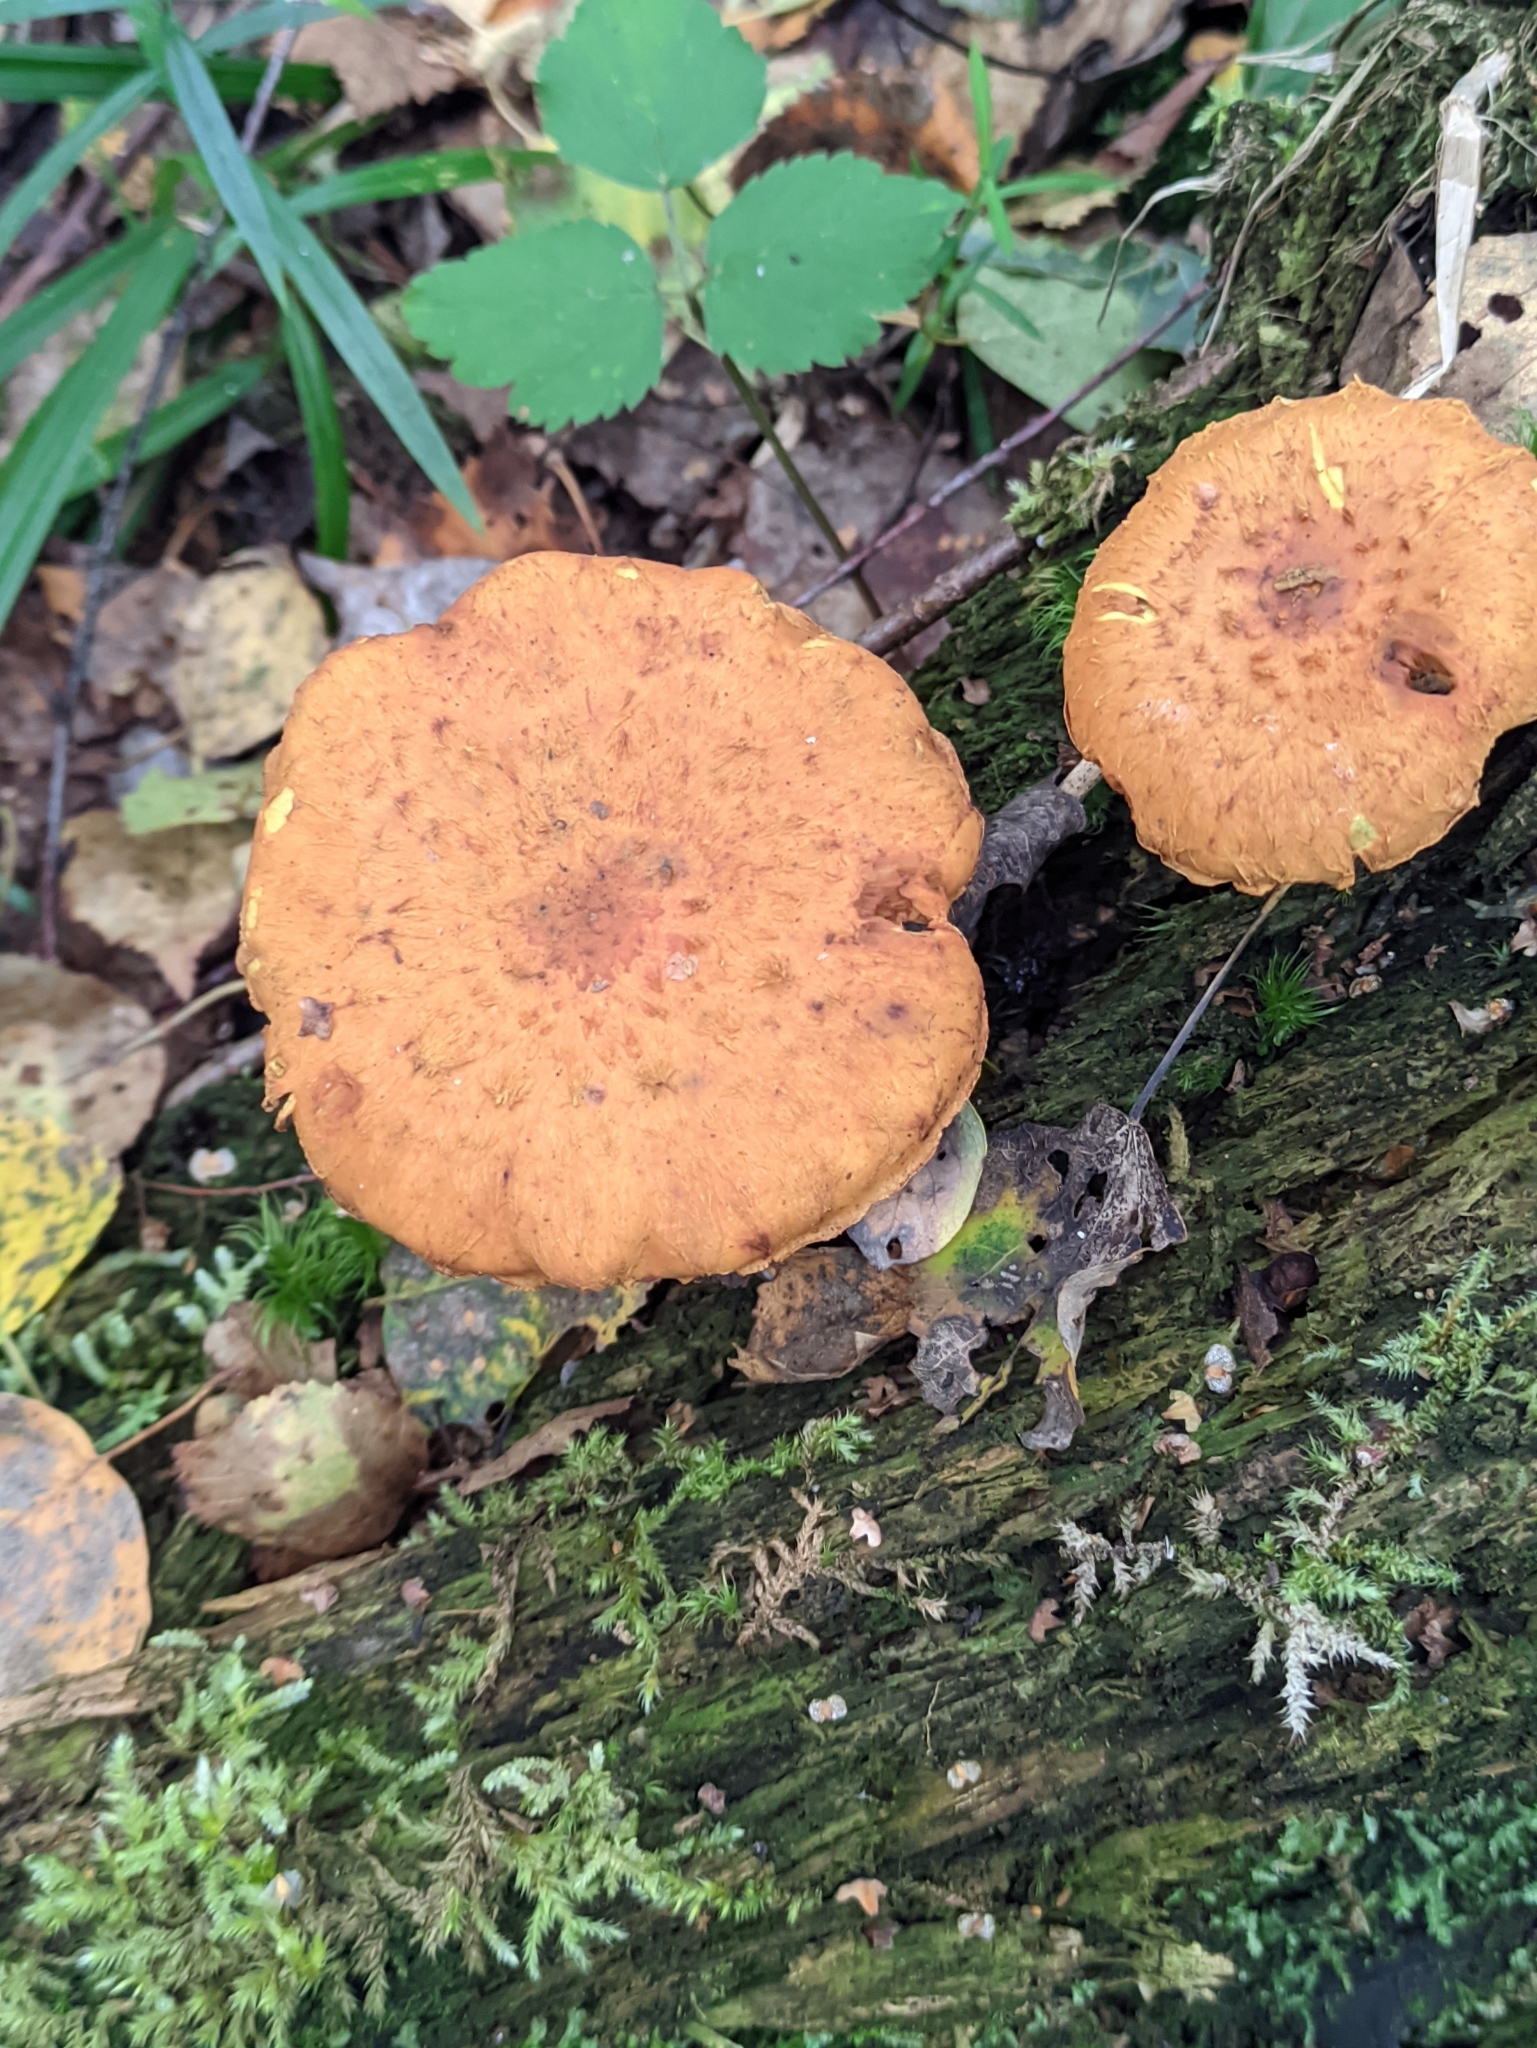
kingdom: Fungi
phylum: Basidiomycota
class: Agaricomycetes
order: Agaricales
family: Strophariaceae
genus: Pholiota
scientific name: Pholiota flammans
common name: Flaming scalycap
